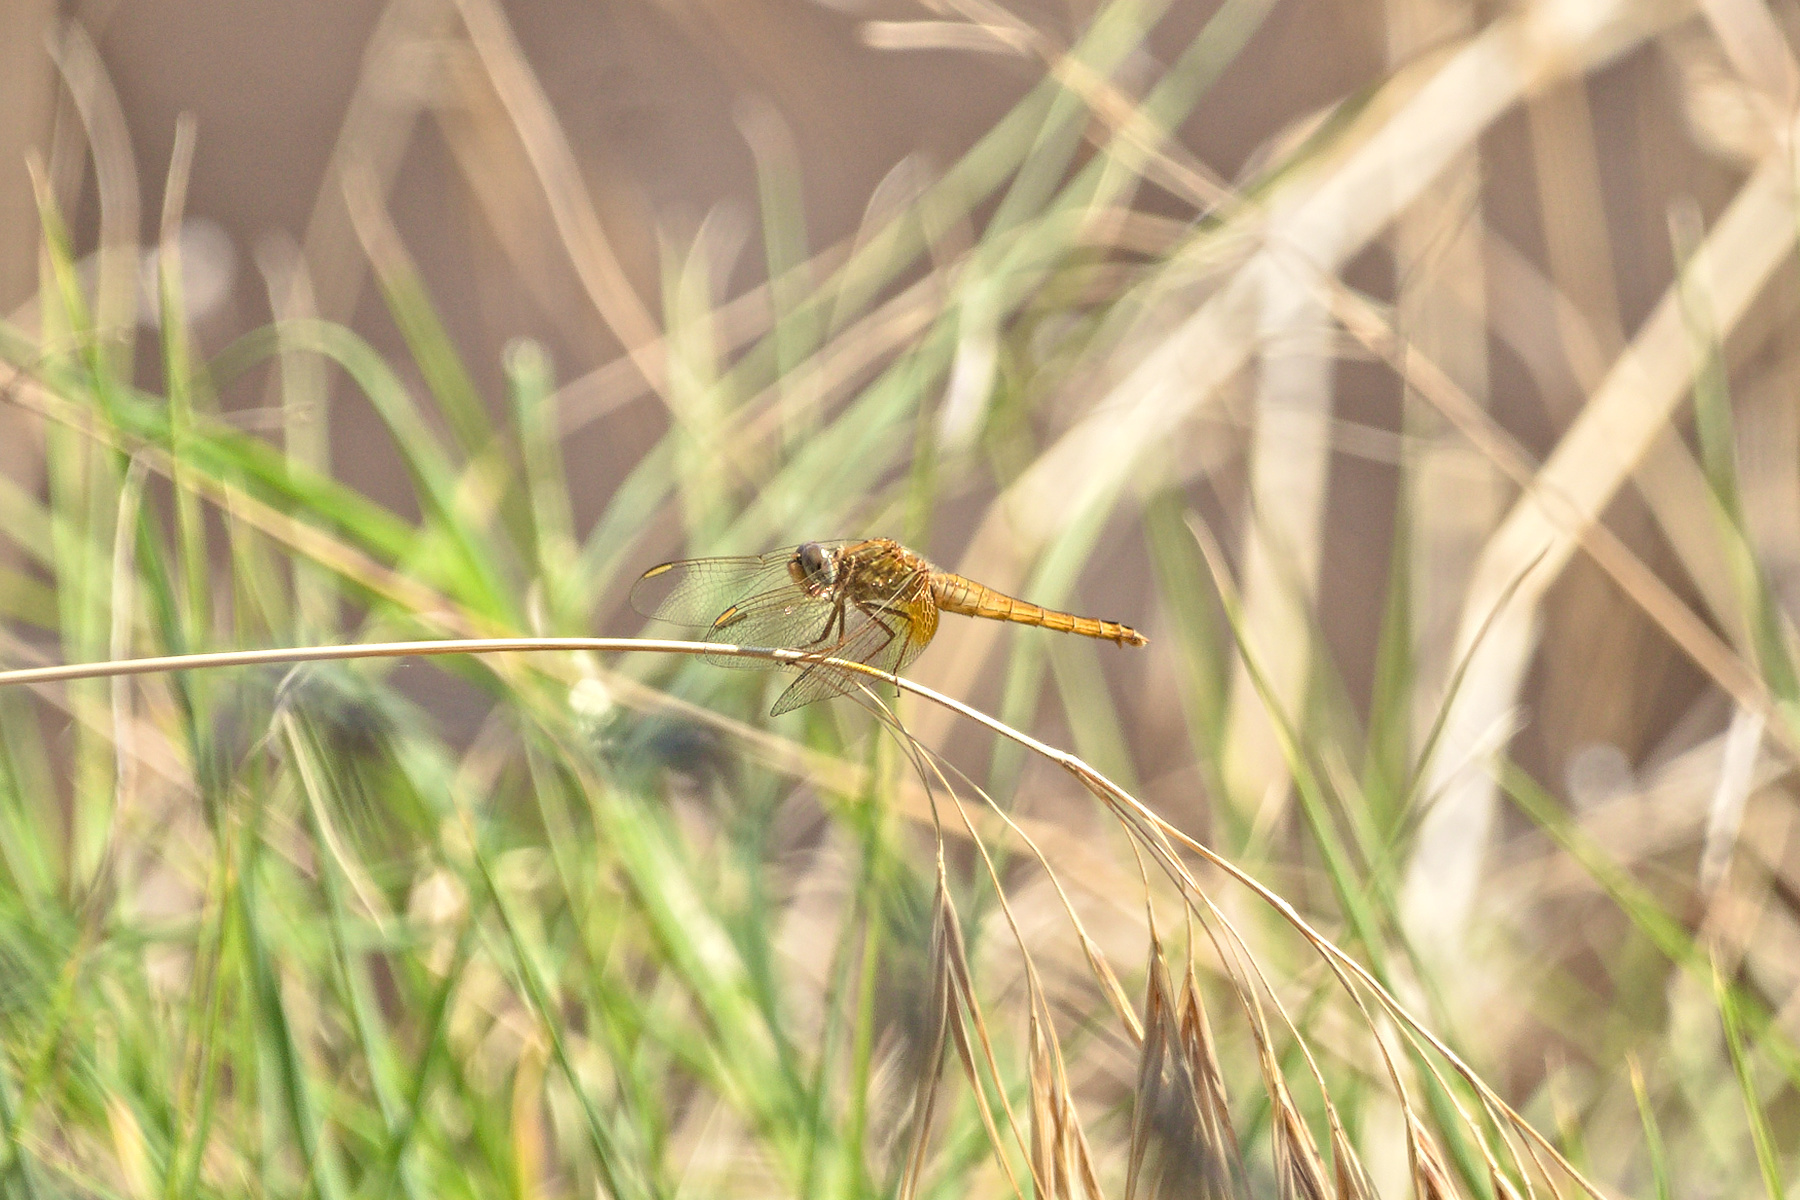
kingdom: Animalia
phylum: Arthropoda
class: Insecta
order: Odonata
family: Libellulidae
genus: Crocothemis
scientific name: Crocothemis erythraea
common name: Scarlet dragonfly
